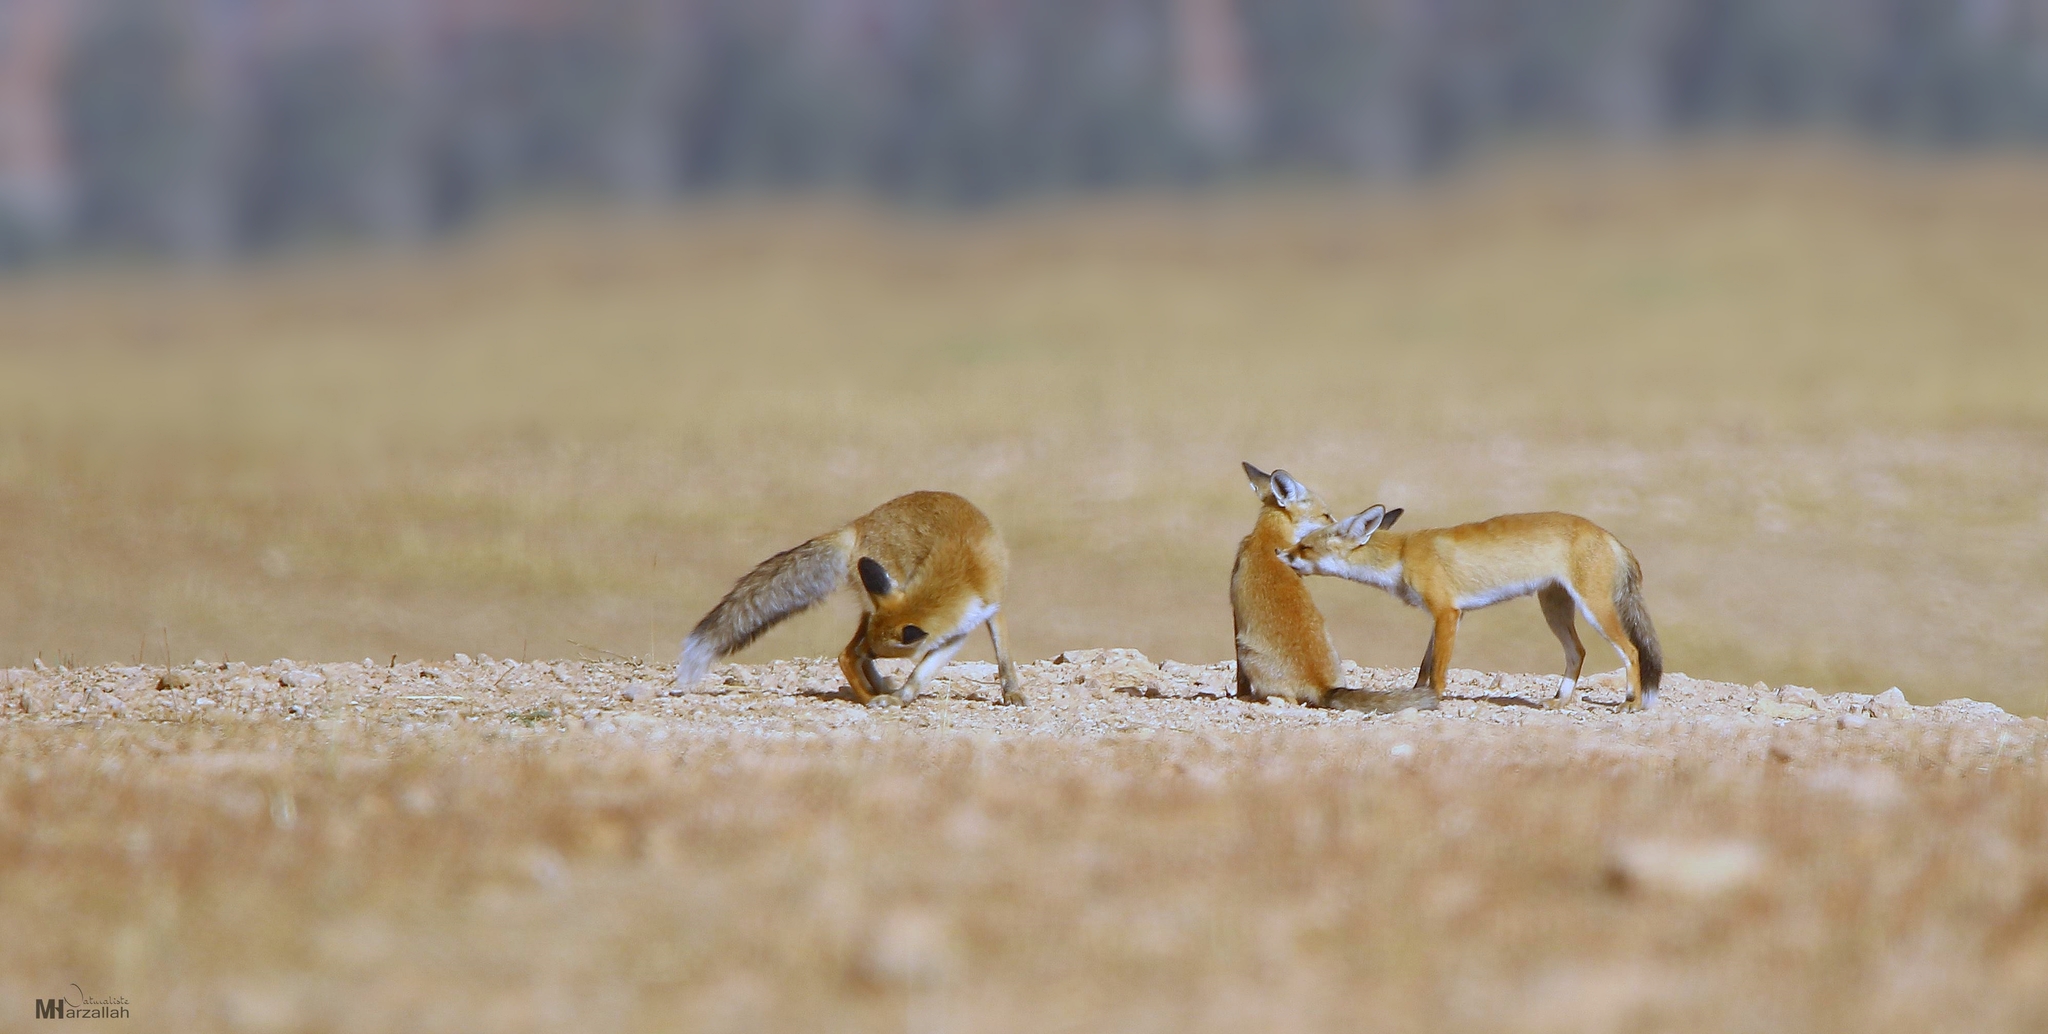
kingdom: Animalia
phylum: Chordata
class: Mammalia
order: Carnivora
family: Canidae
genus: Vulpes
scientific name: Vulpes vulpes
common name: Red fox
